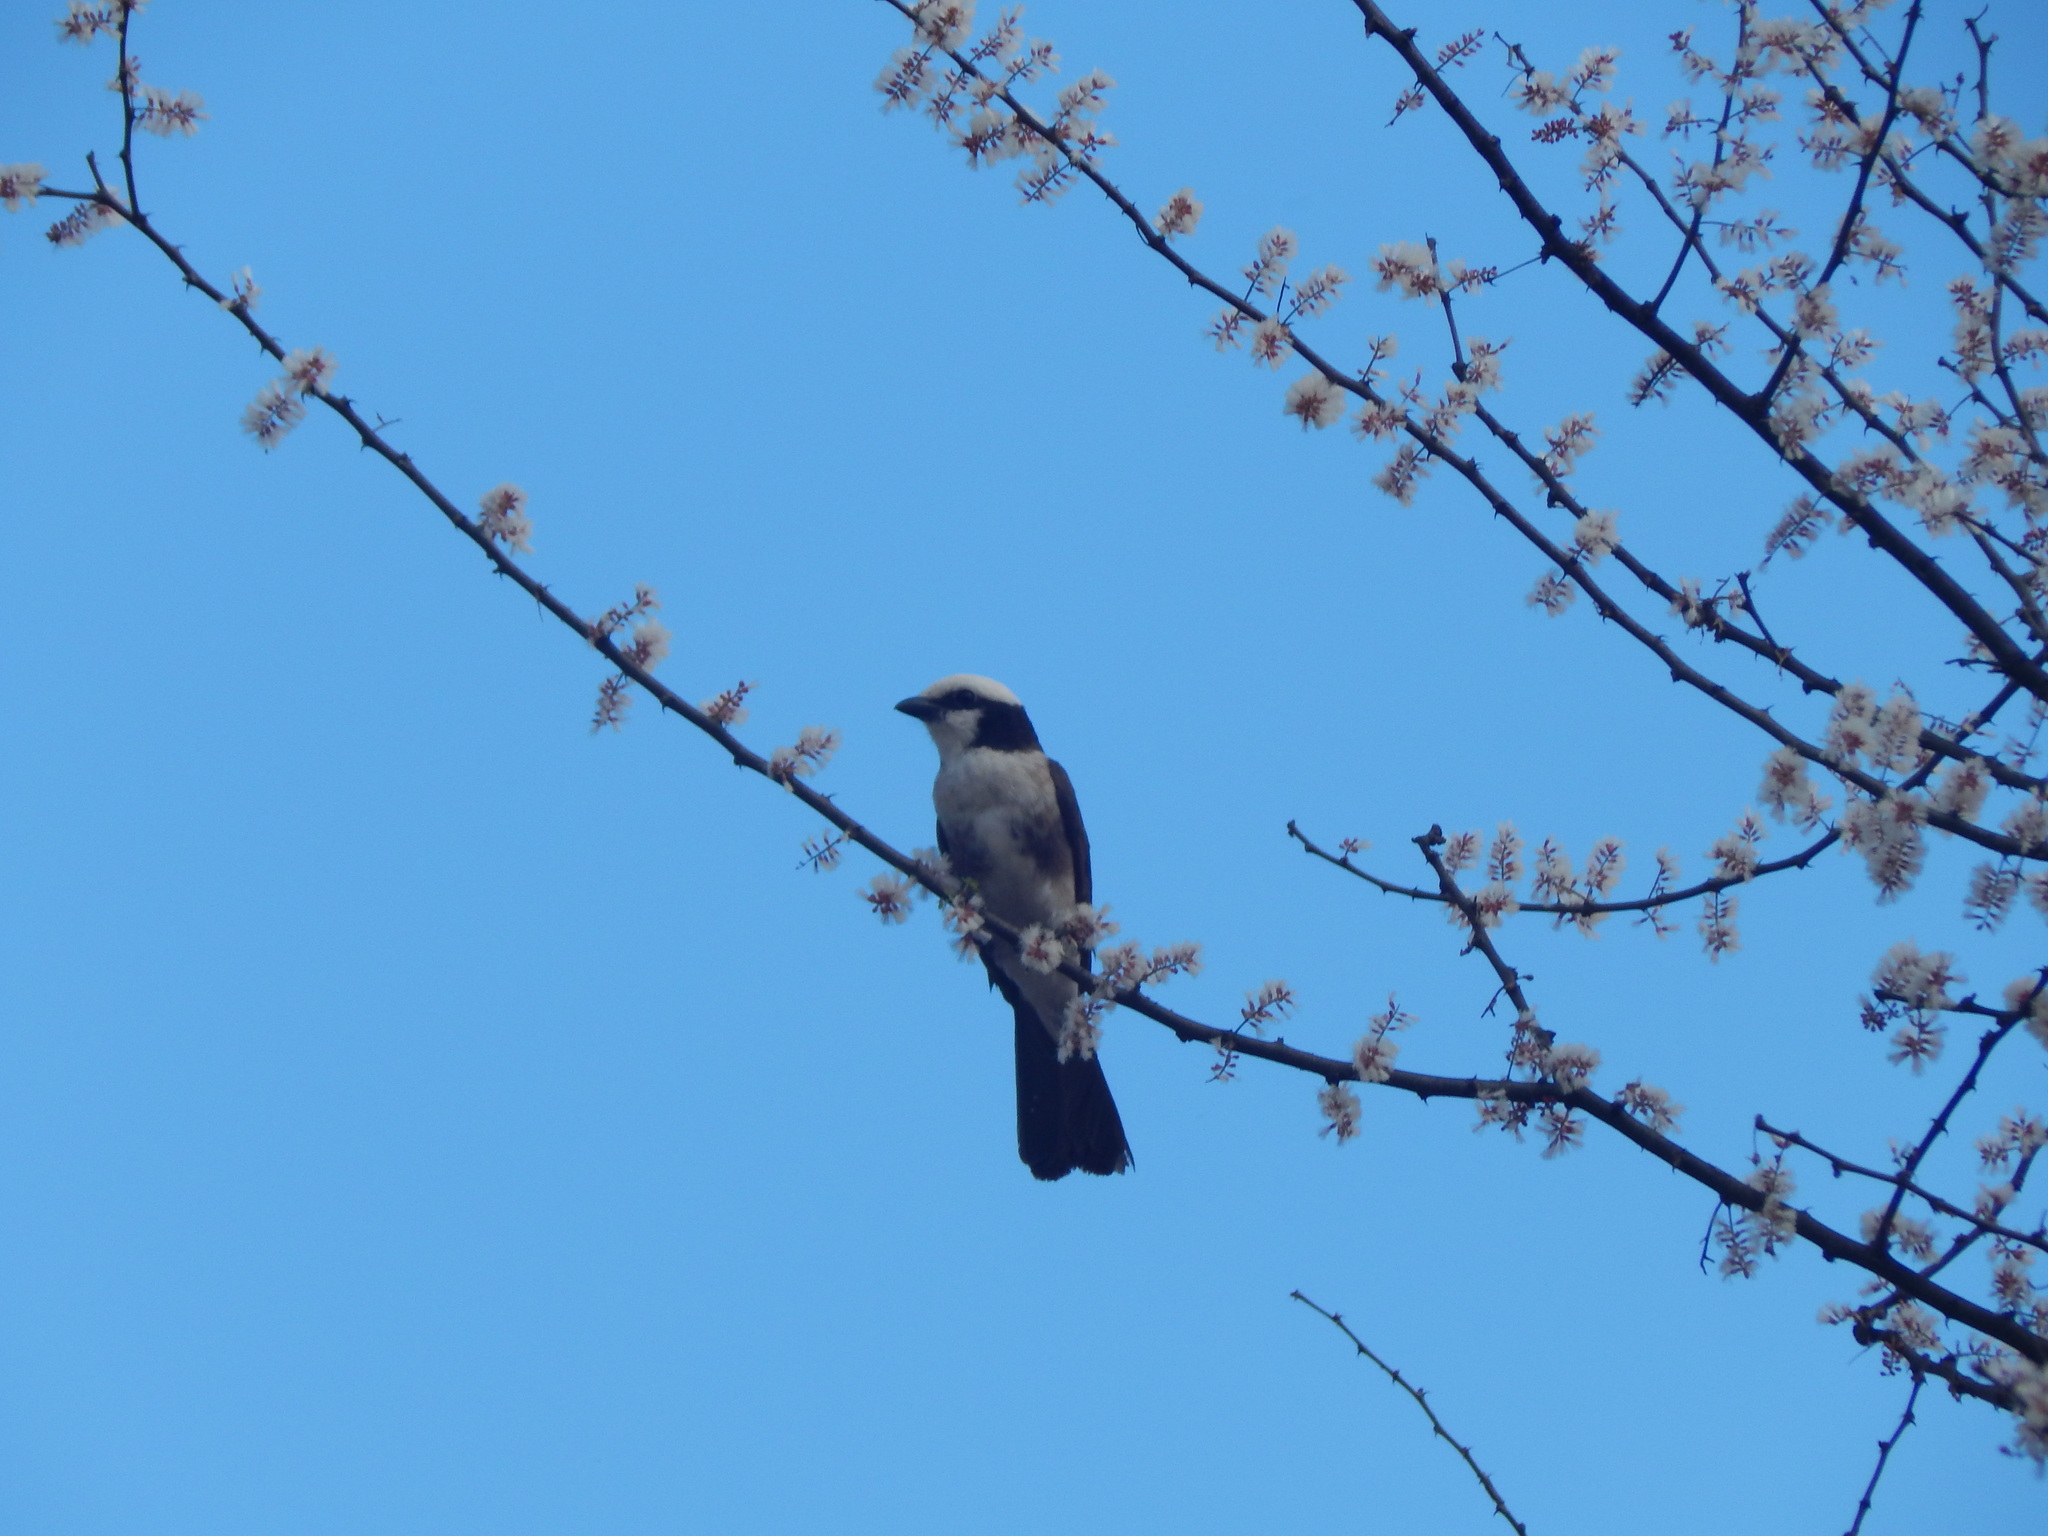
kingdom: Animalia
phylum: Chordata
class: Aves
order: Passeriformes
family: Laniidae
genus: Eurocephalus
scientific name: Eurocephalus ruppelli
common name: Northern white-crowned shrike
